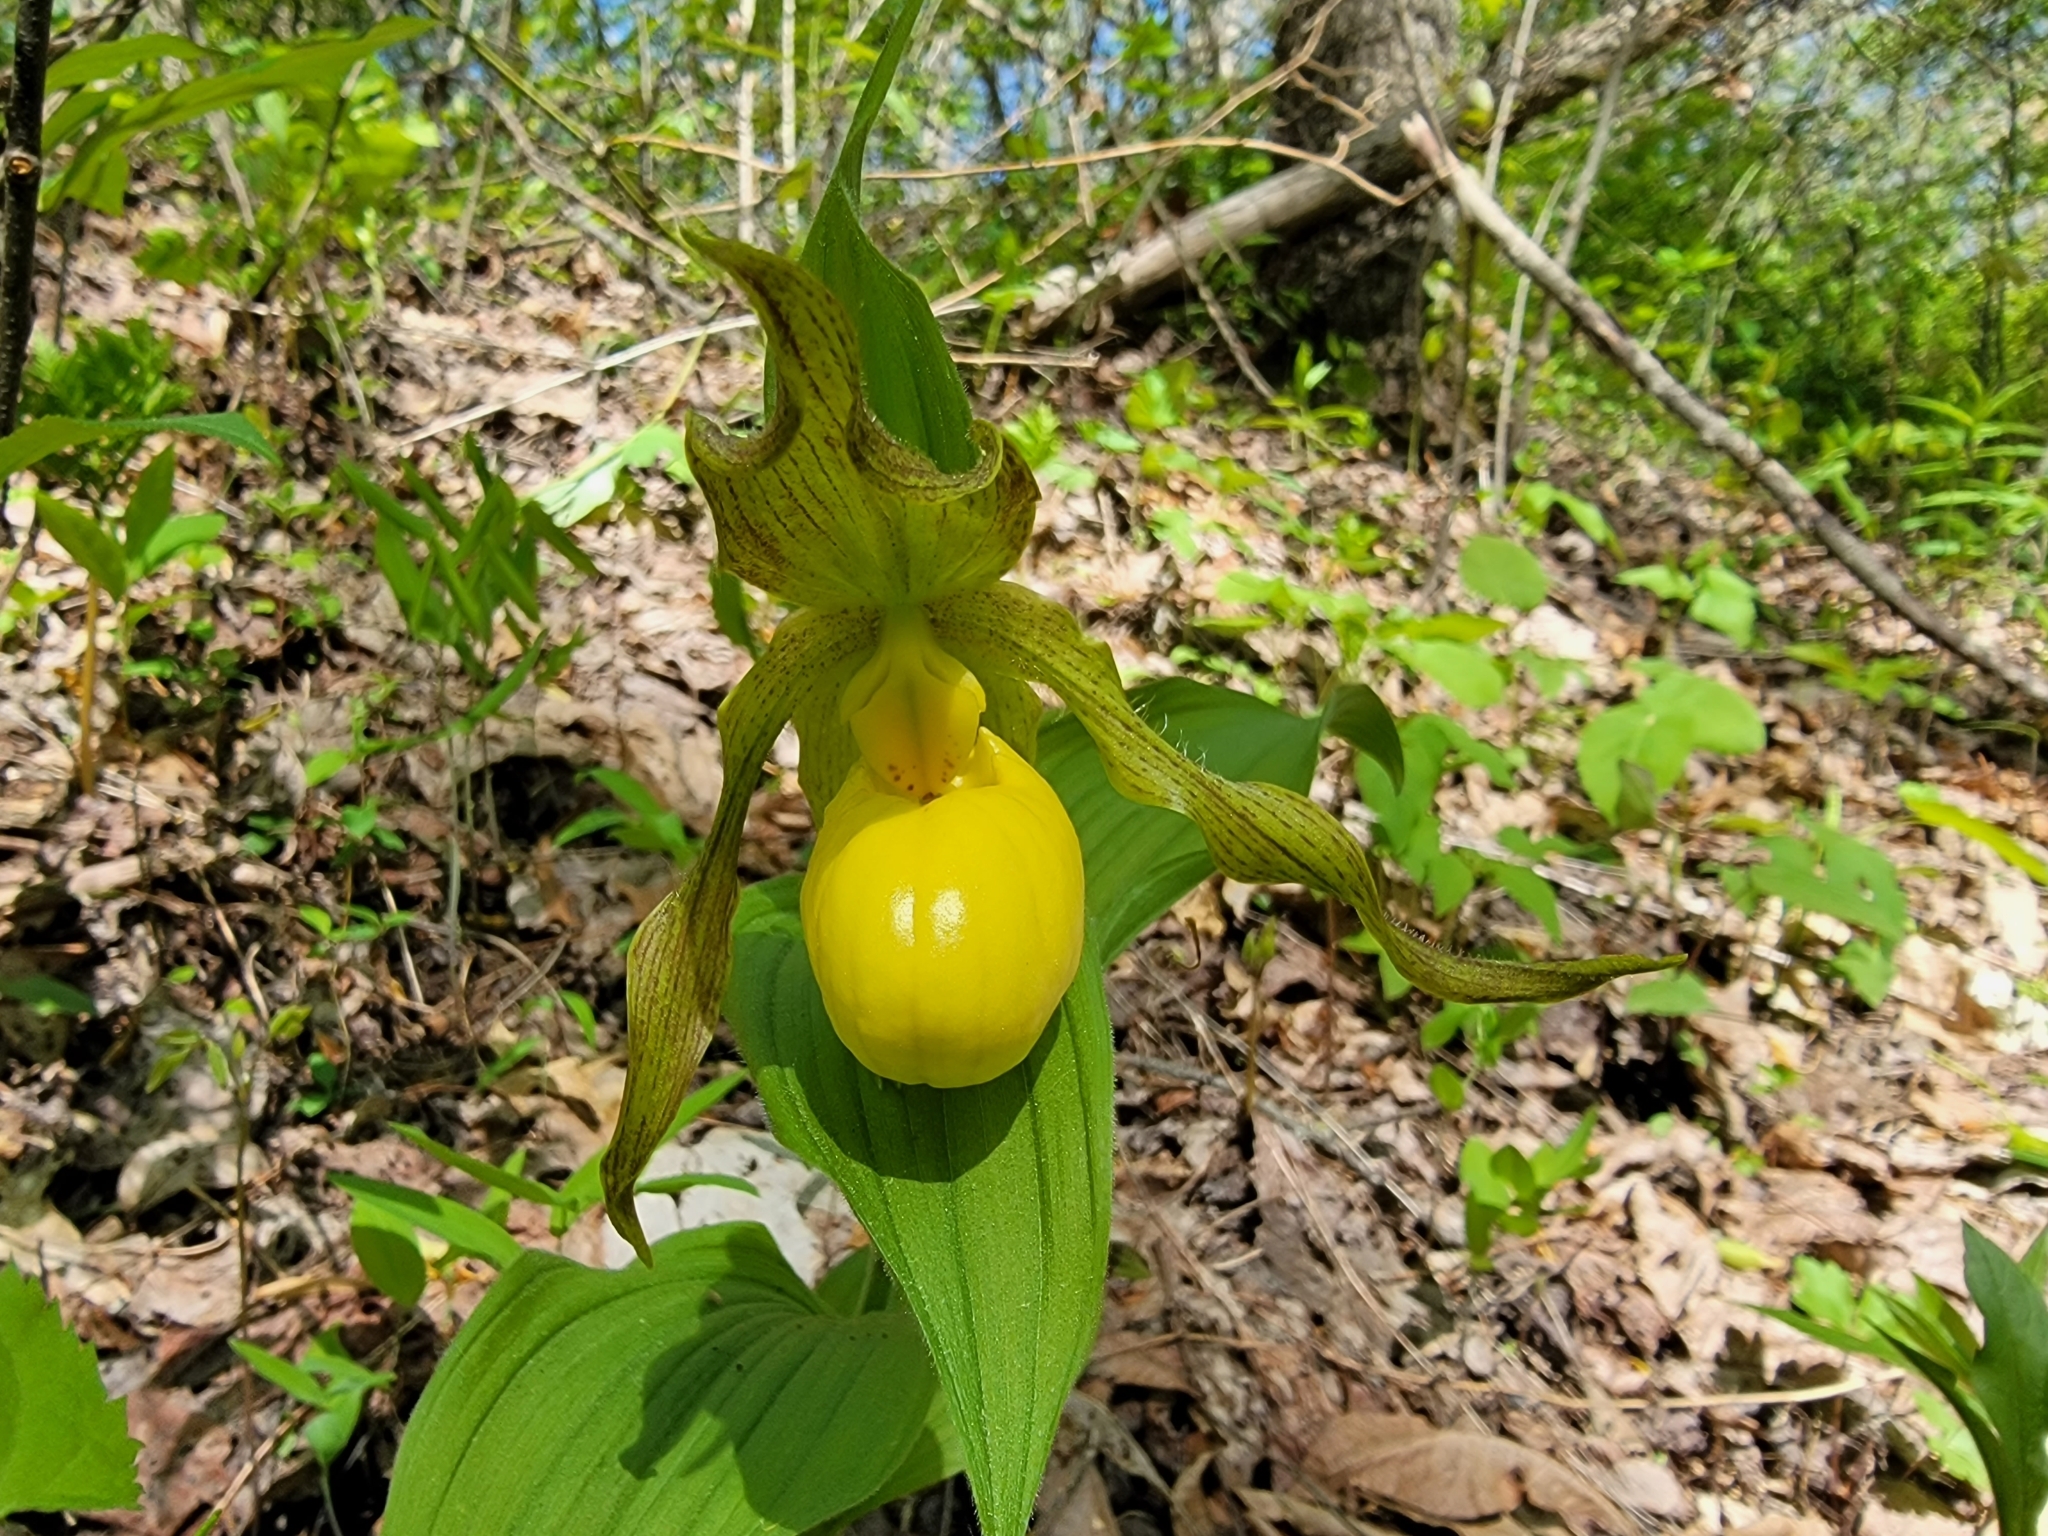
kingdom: Plantae
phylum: Tracheophyta
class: Liliopsida
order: Asparagales
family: Orchidaceae
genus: Cypripedium
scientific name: Cypripedium parviflorum
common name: American yellow lady's-slipper
